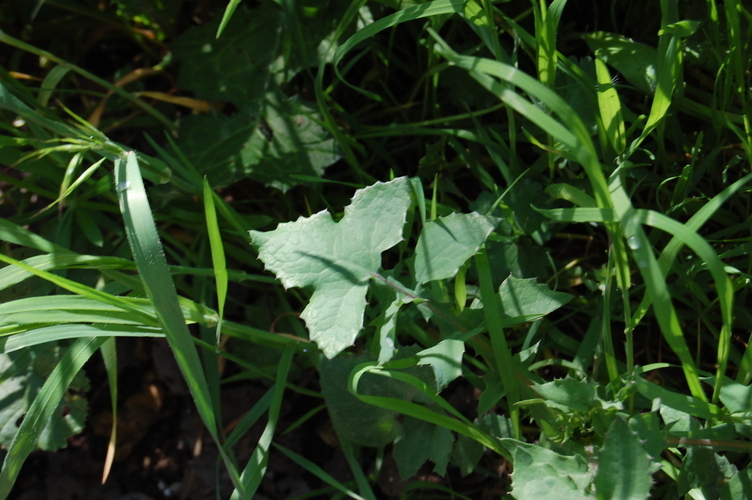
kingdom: Plantae
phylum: Tracheophyta
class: Magnoliopsida
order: Asterales
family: Asteraceae
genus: Sonchus
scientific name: Sonchus oleraceus
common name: Common sowthistle
